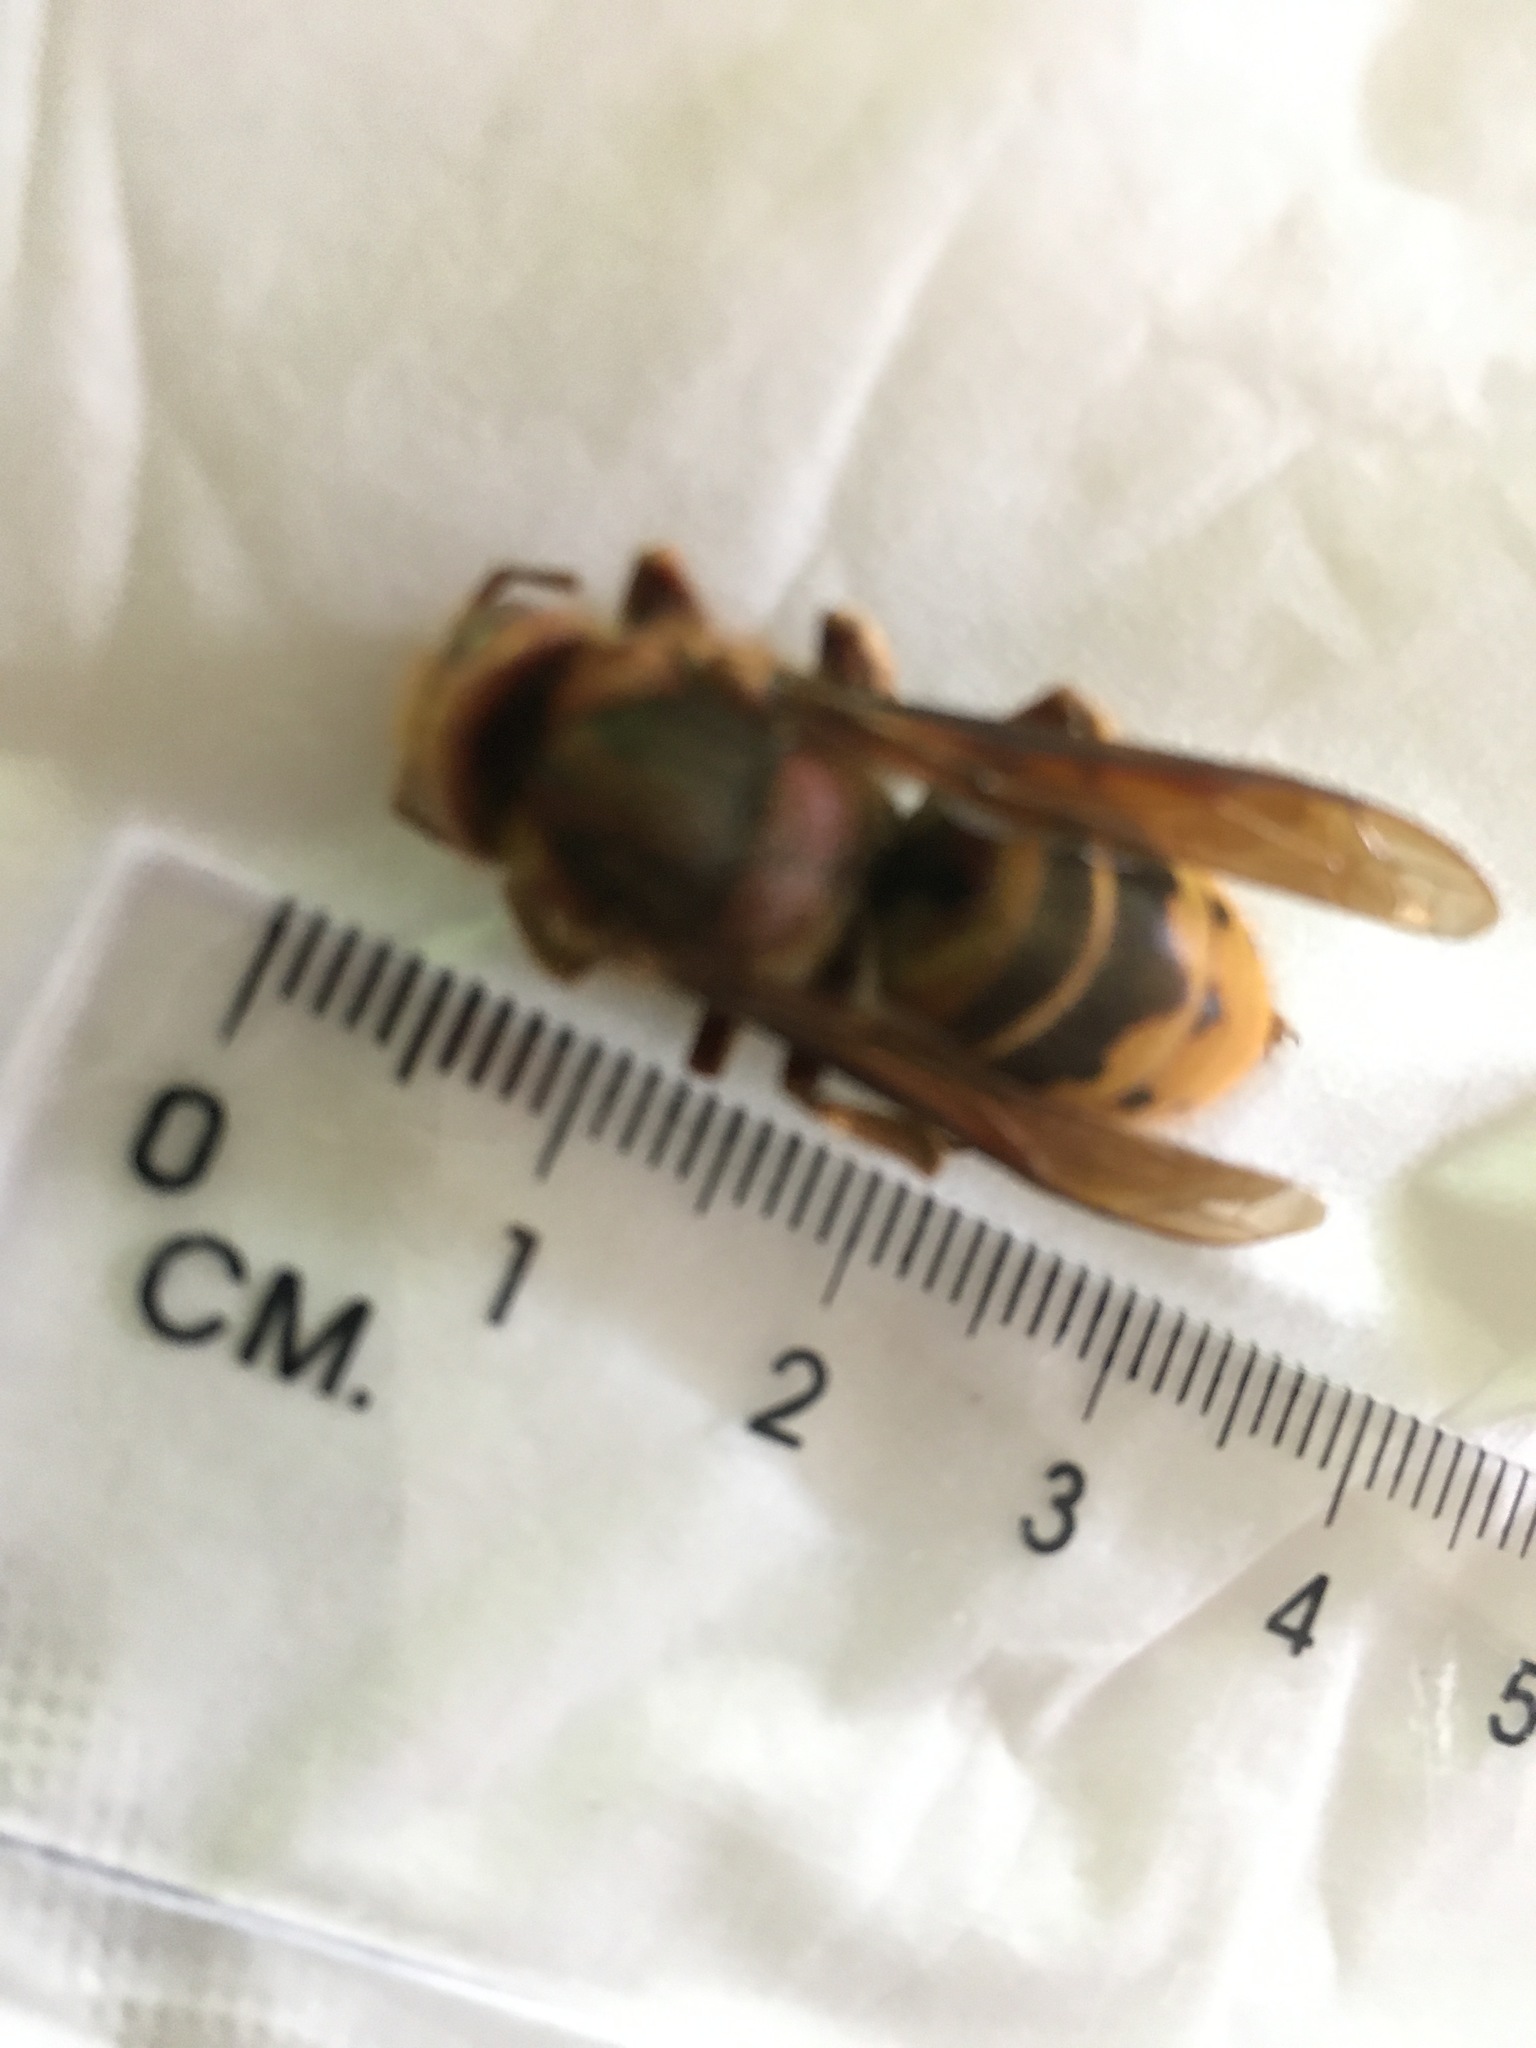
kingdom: Animalia
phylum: Arthropoda
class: Insecta
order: Hymenoptera
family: Vespidae
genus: Vespa
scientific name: Vespa crabro
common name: Hornet
